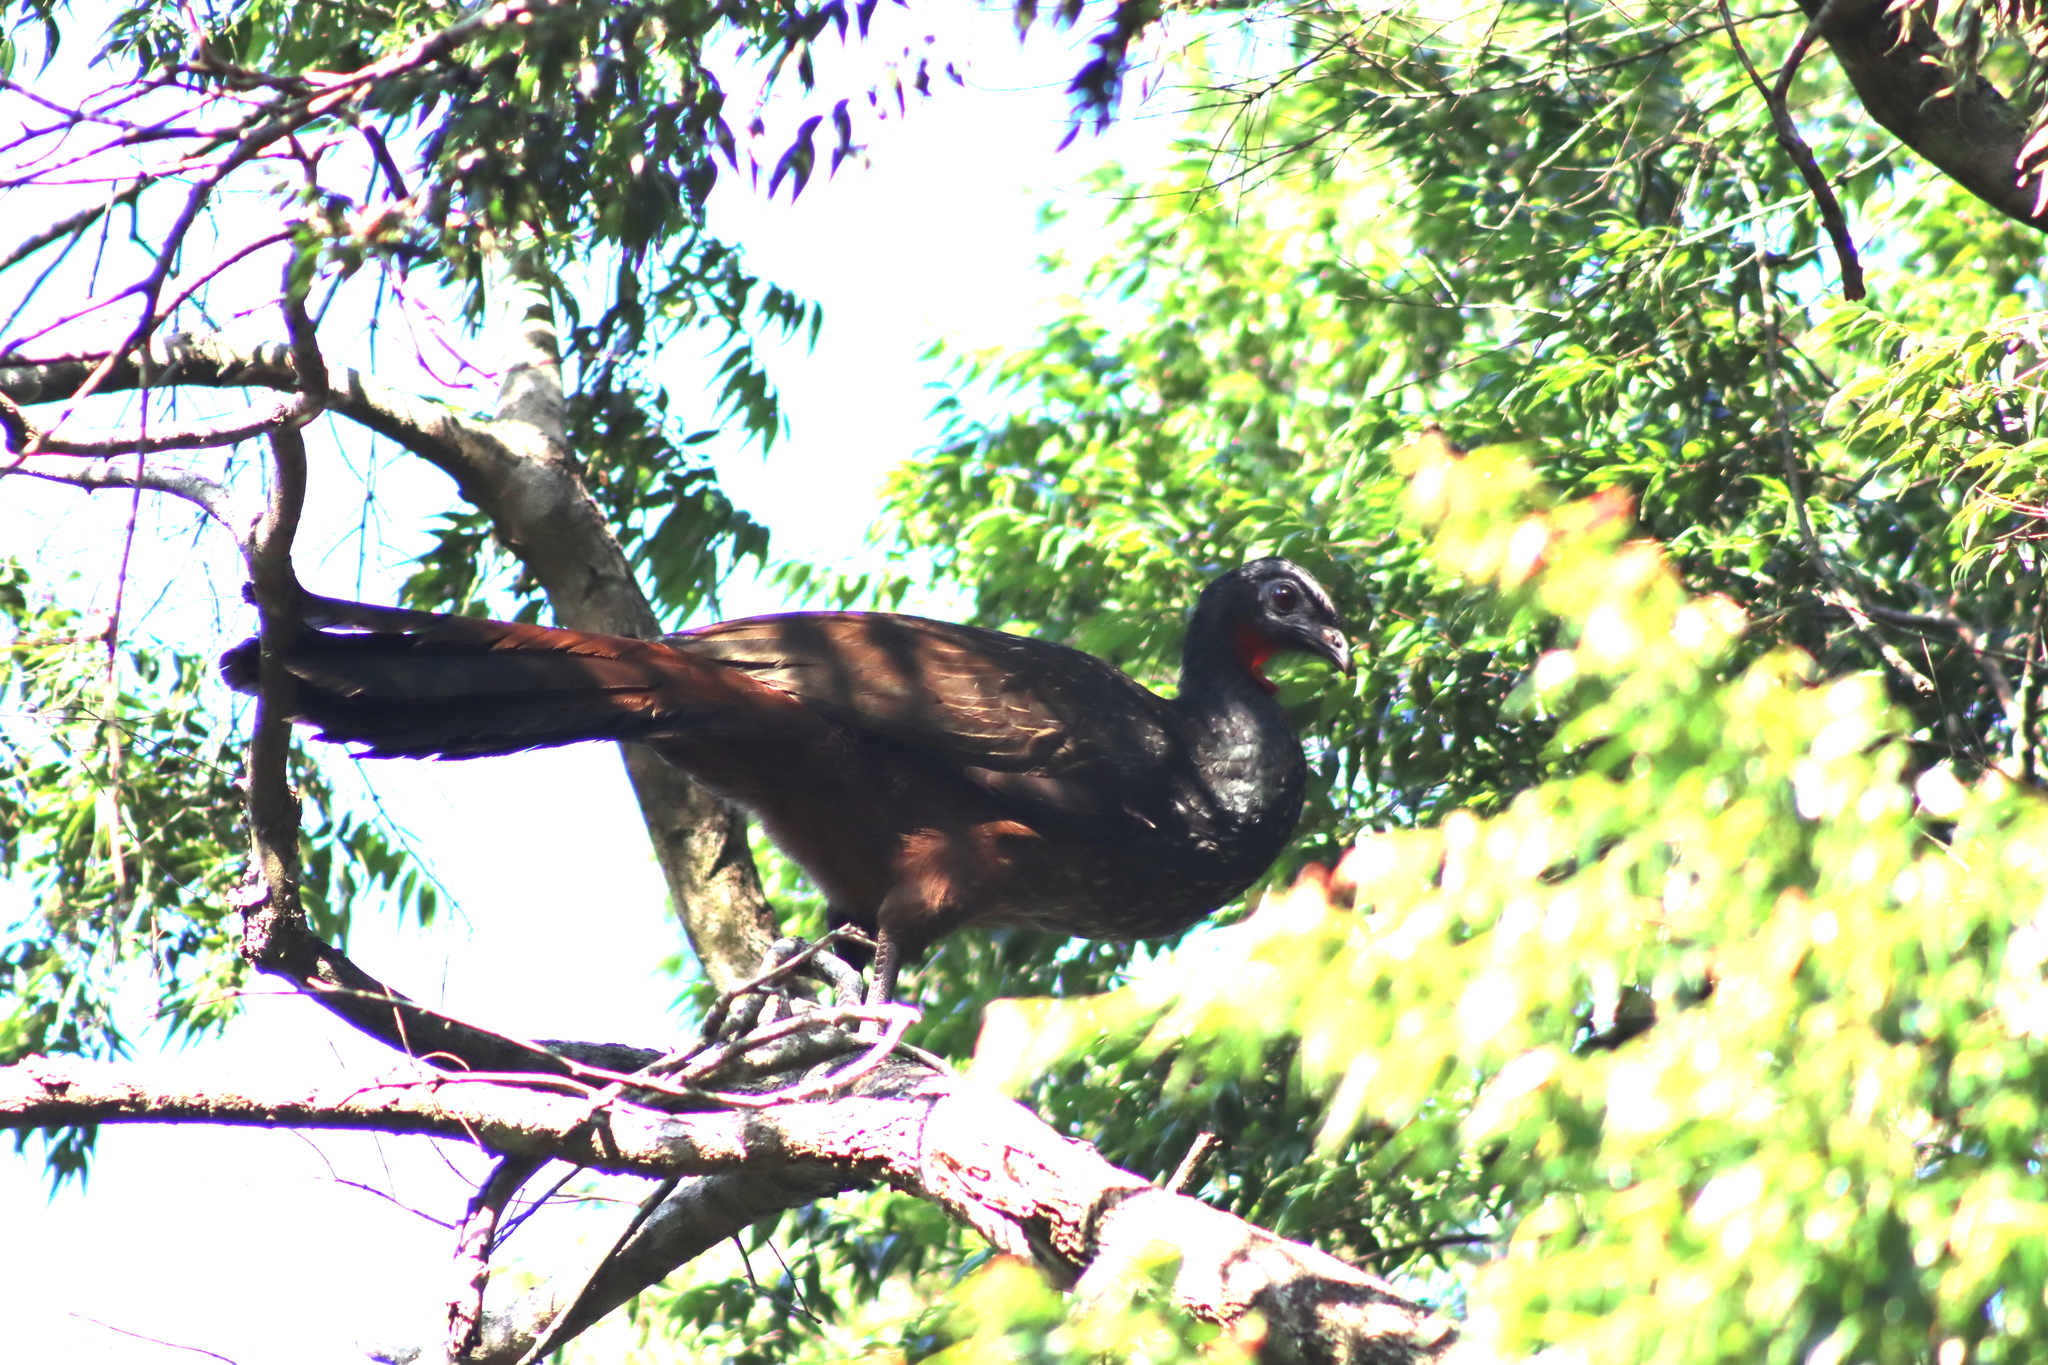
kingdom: Animalia
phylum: Chordata
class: Aves
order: Galliformes
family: Cracidae
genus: Penelope
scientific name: Penelope obscura
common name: Dusky-legged guan
